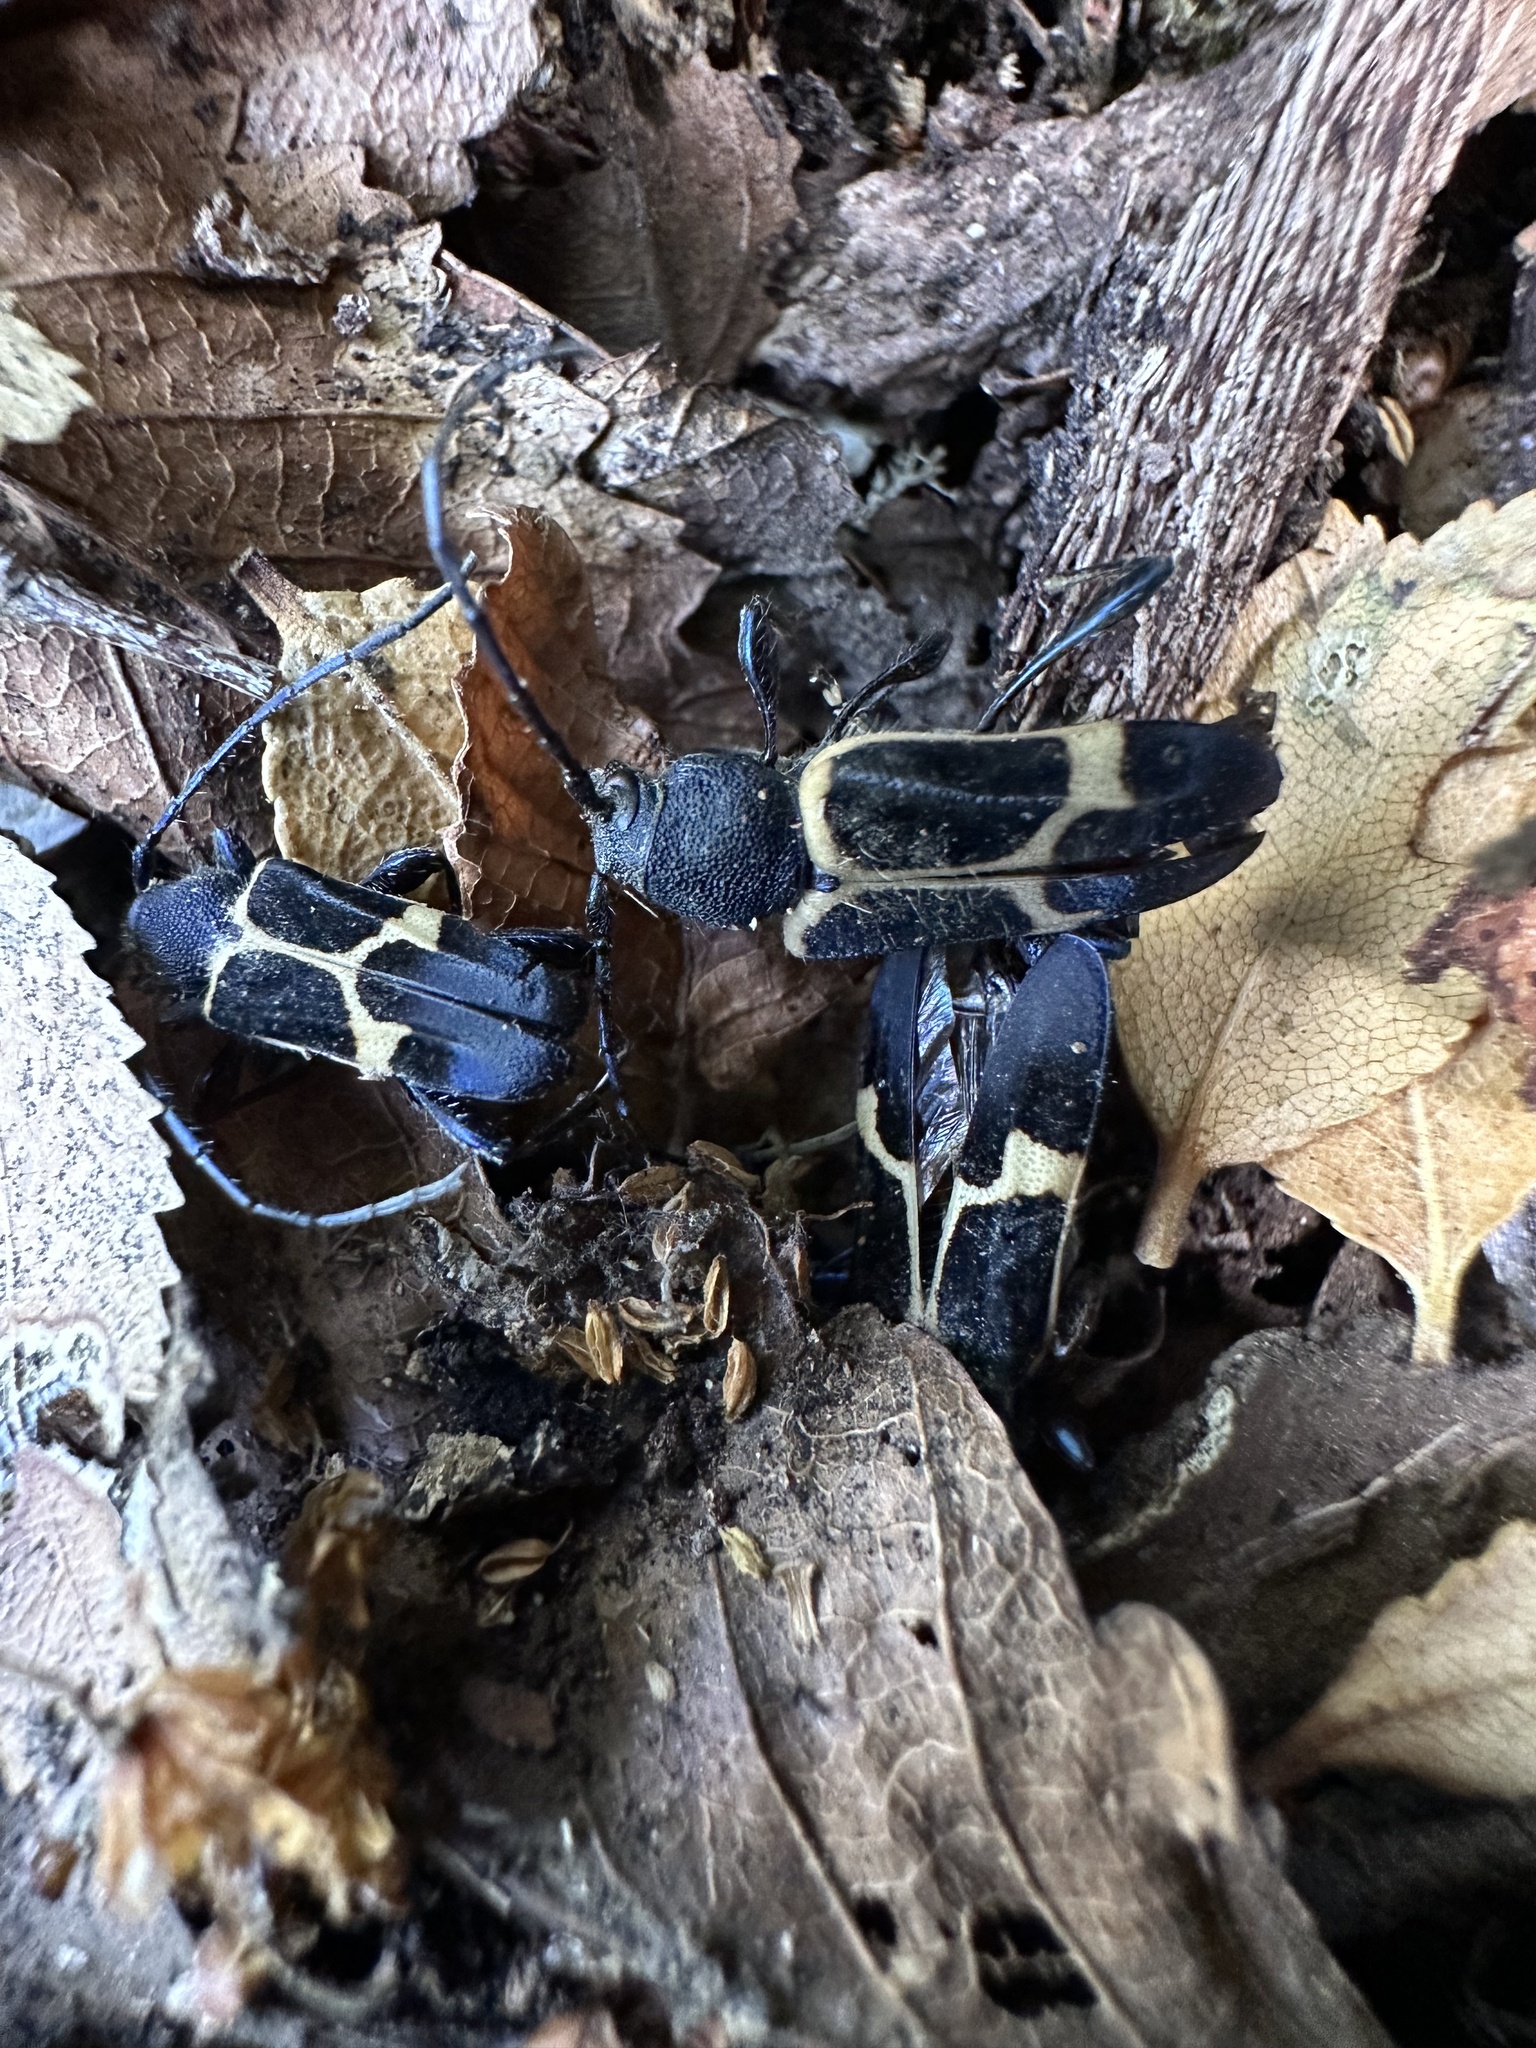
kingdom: Animalia
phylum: Arthropoda
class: Insecta
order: Coleoptera
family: Cerambycidae
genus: Calydon
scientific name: Calydon submetallicum
